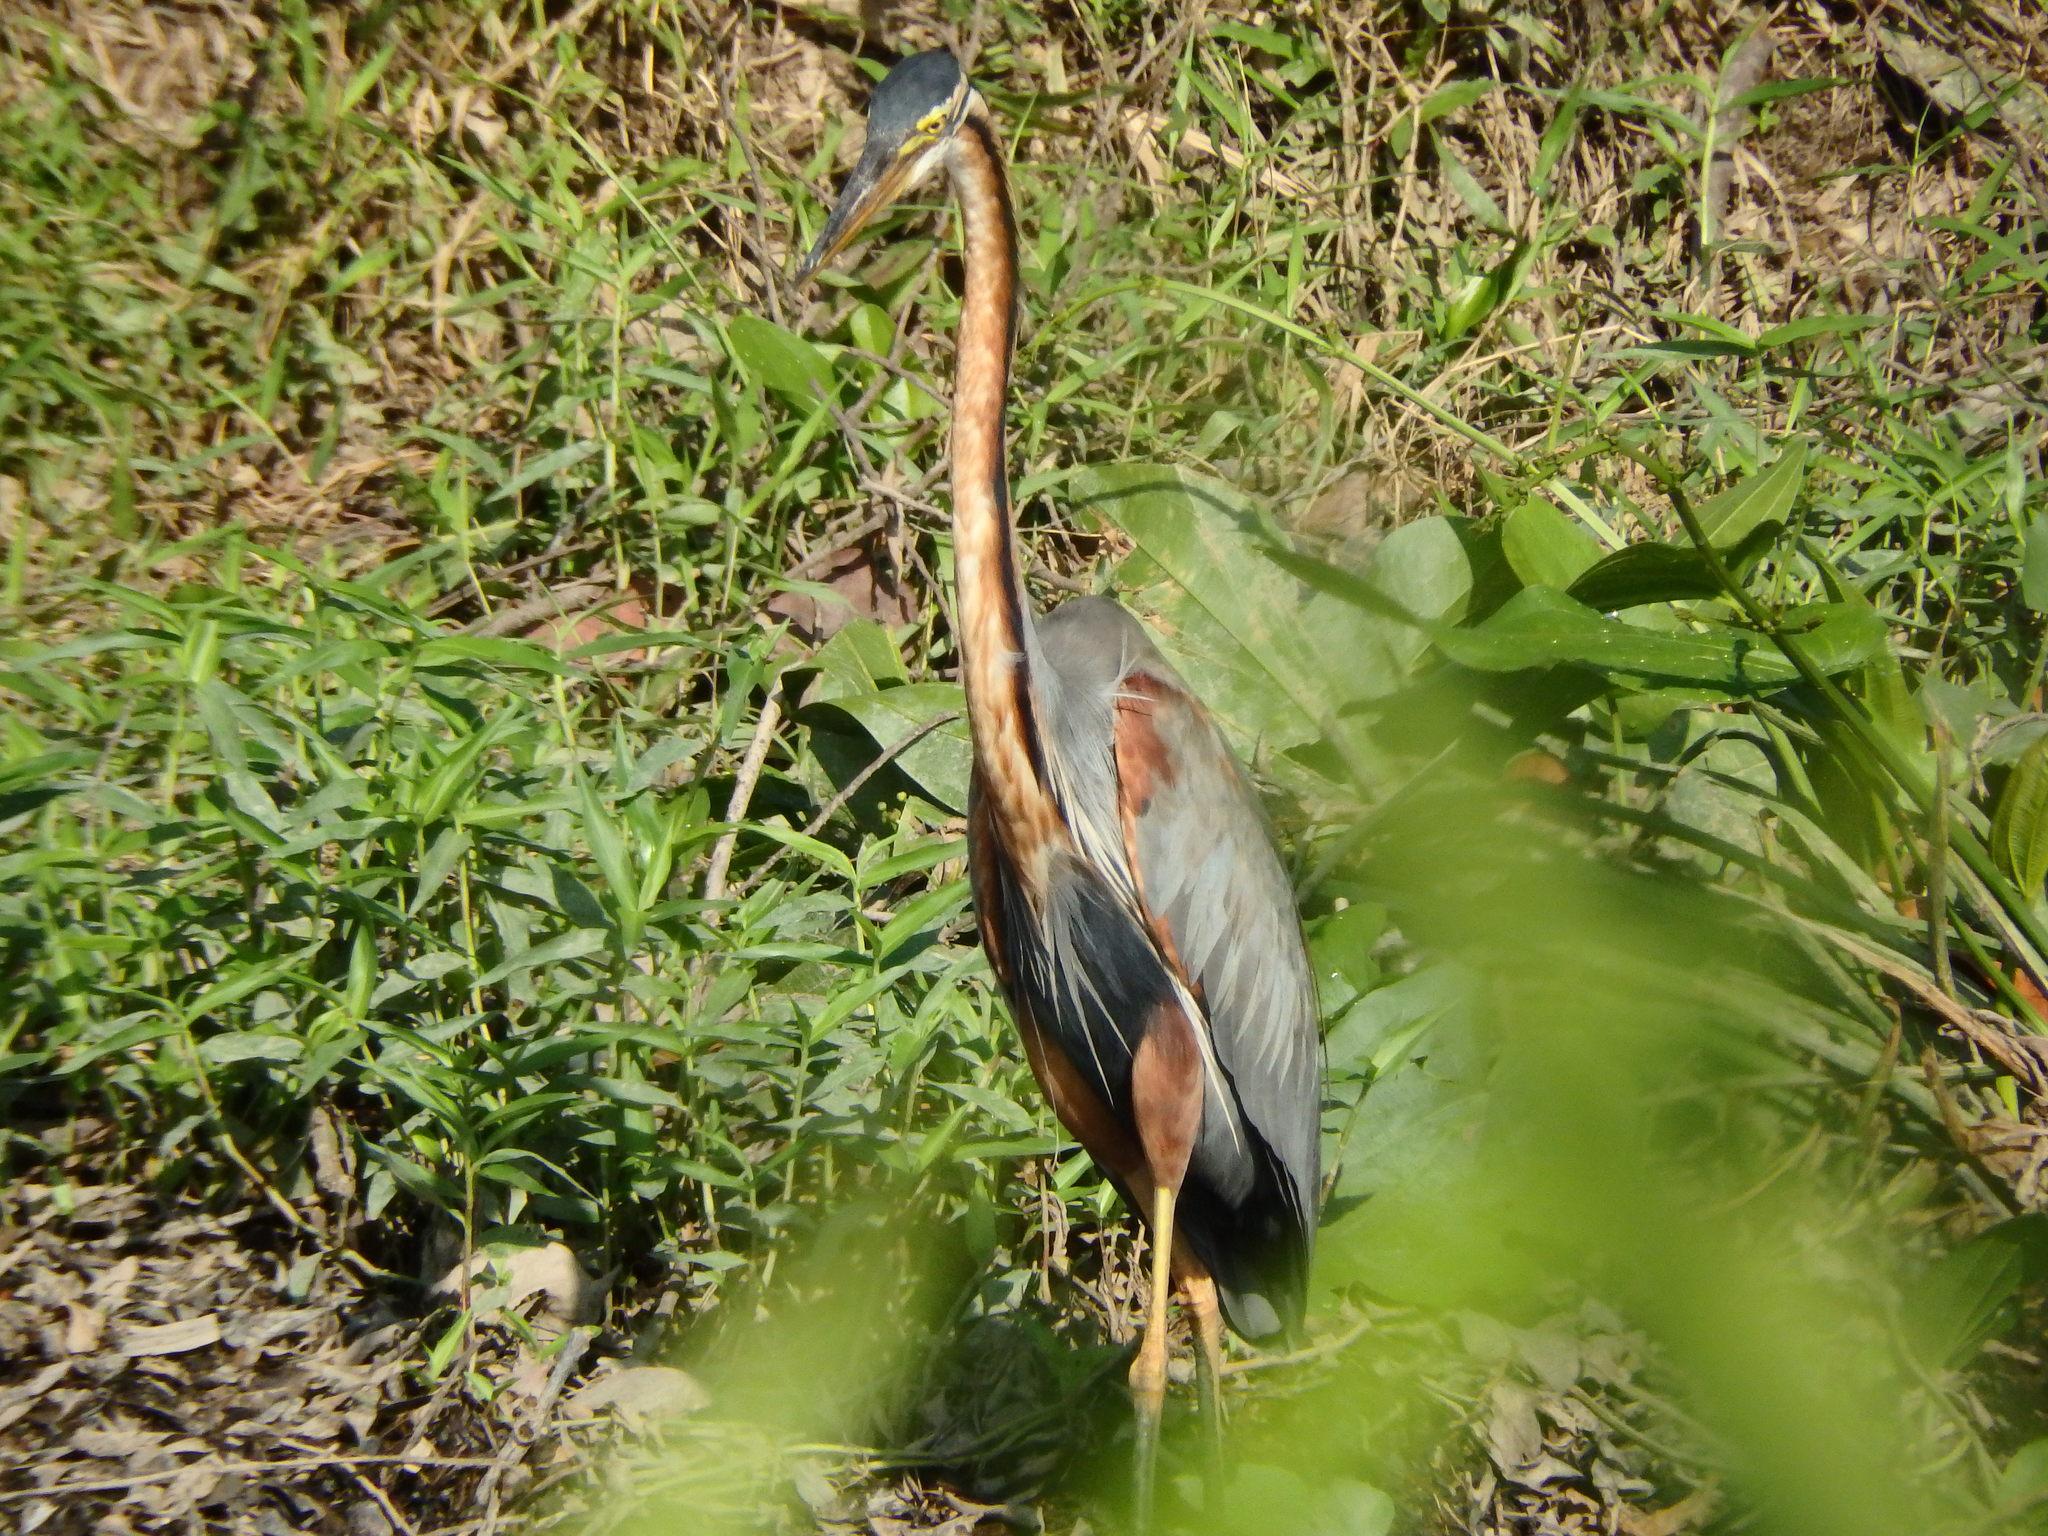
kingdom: Animalia
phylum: Chordata
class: Aves
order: Pelecaniformes
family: Ardeidae
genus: Ardea
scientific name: Ardea purpurea
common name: Purple heron
